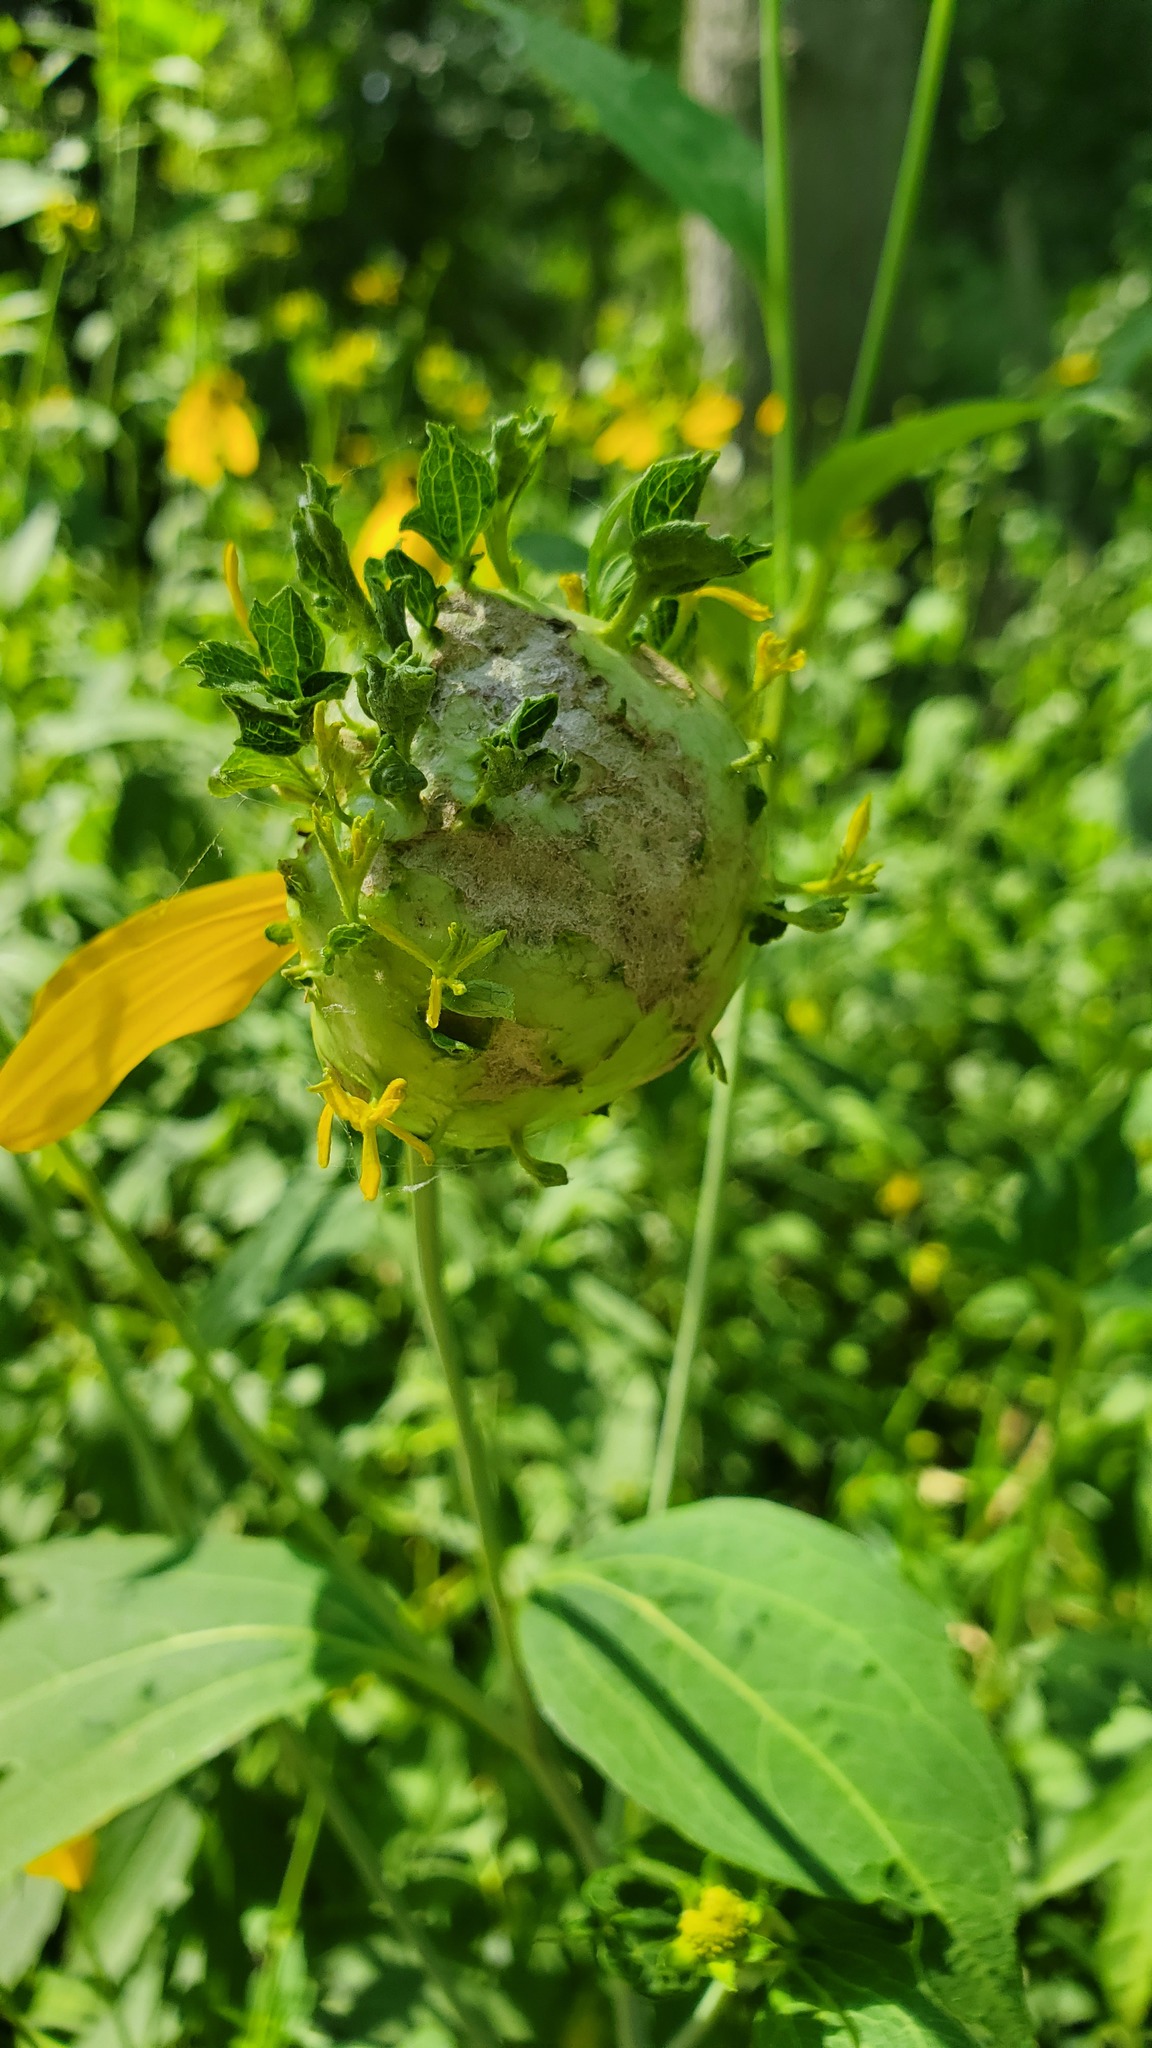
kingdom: Animalia
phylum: Arthropoda
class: Insecta
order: Diptera
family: Cecidomyiidae
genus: Asphondylia
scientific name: Asphondylia rudbeckiaeconspicua
